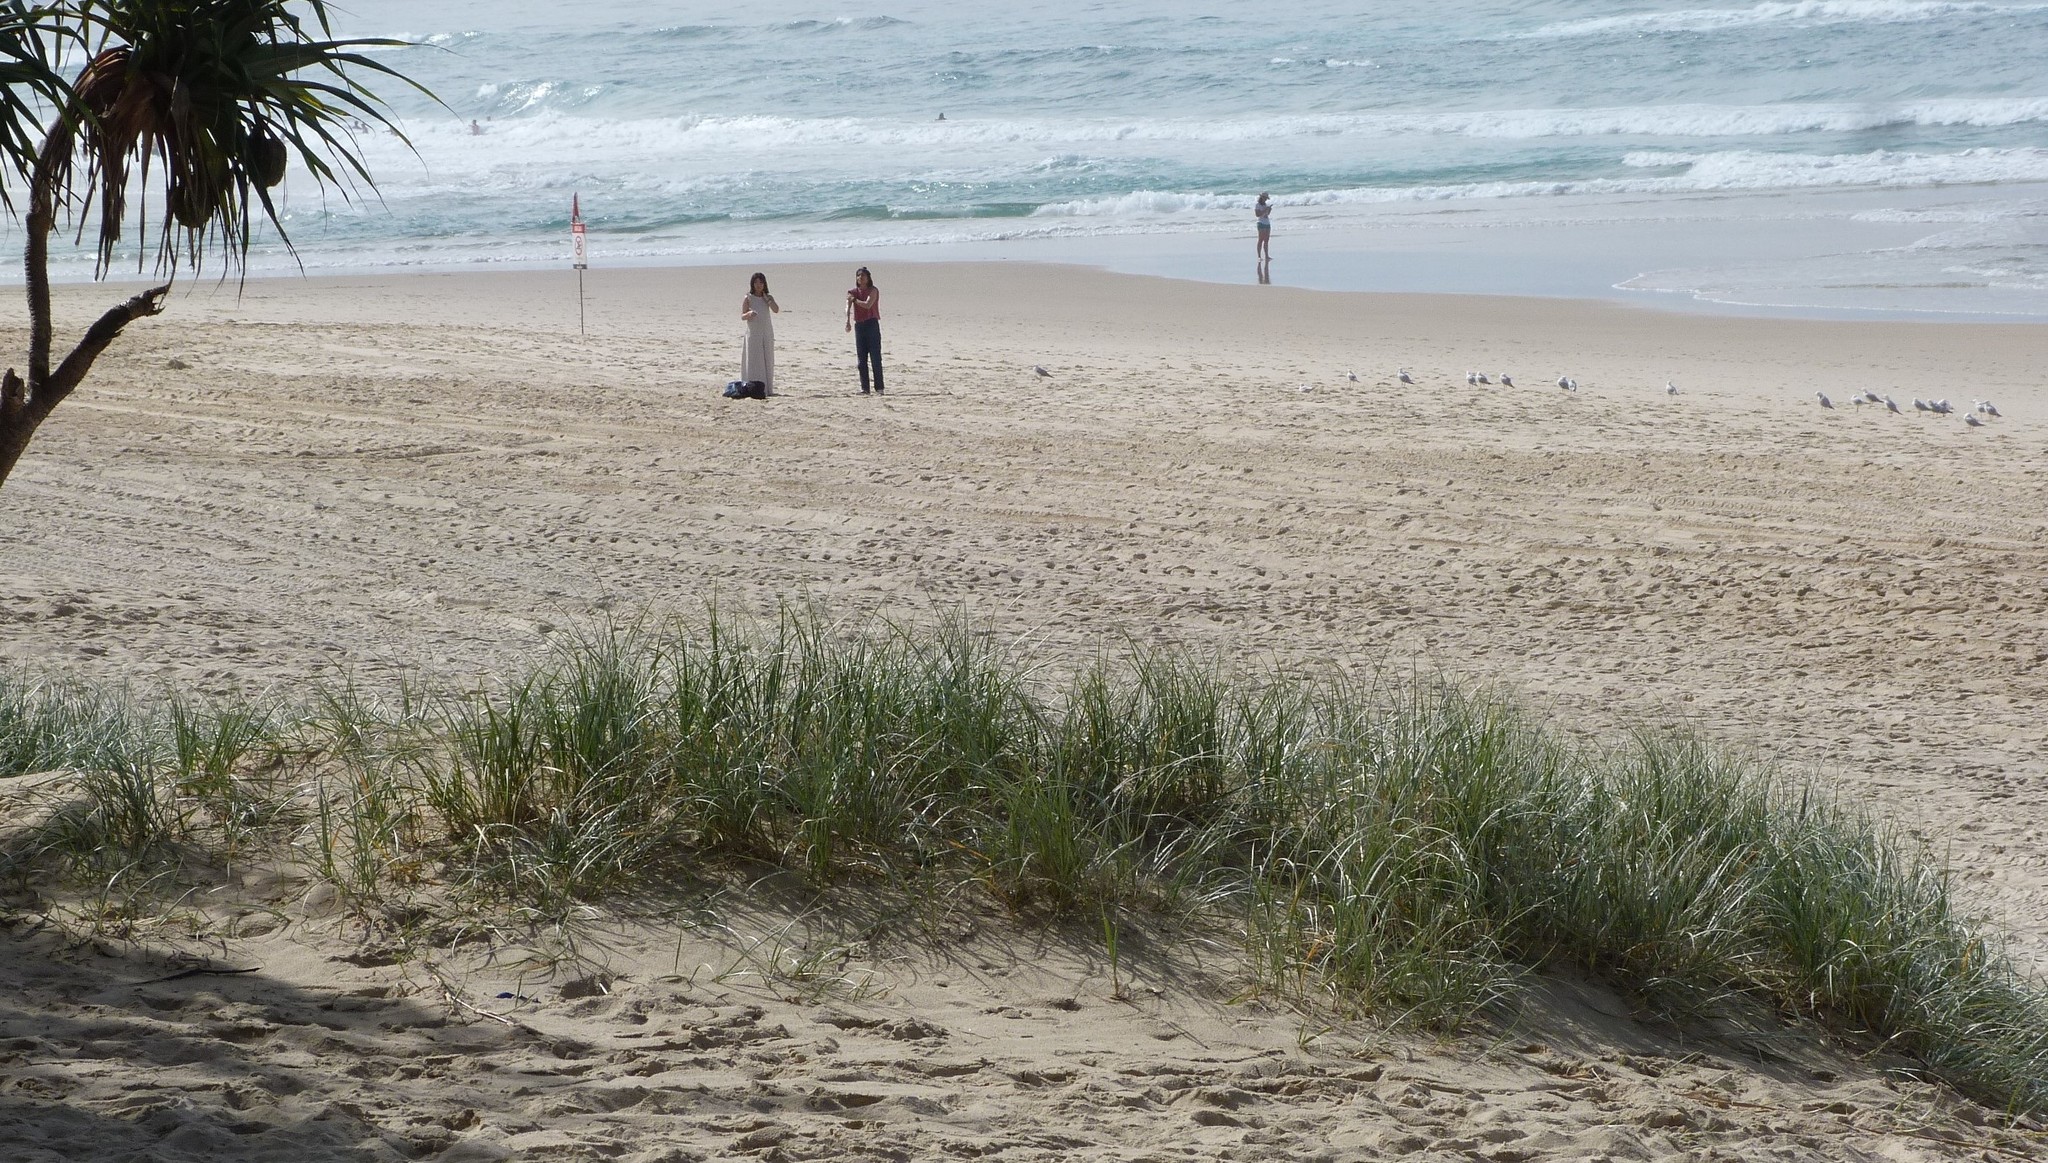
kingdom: Plantae
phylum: Tracheophyta
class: Liliopsida
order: Poales
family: Poaceae
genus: Spinifex
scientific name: Spinifex sericeus
